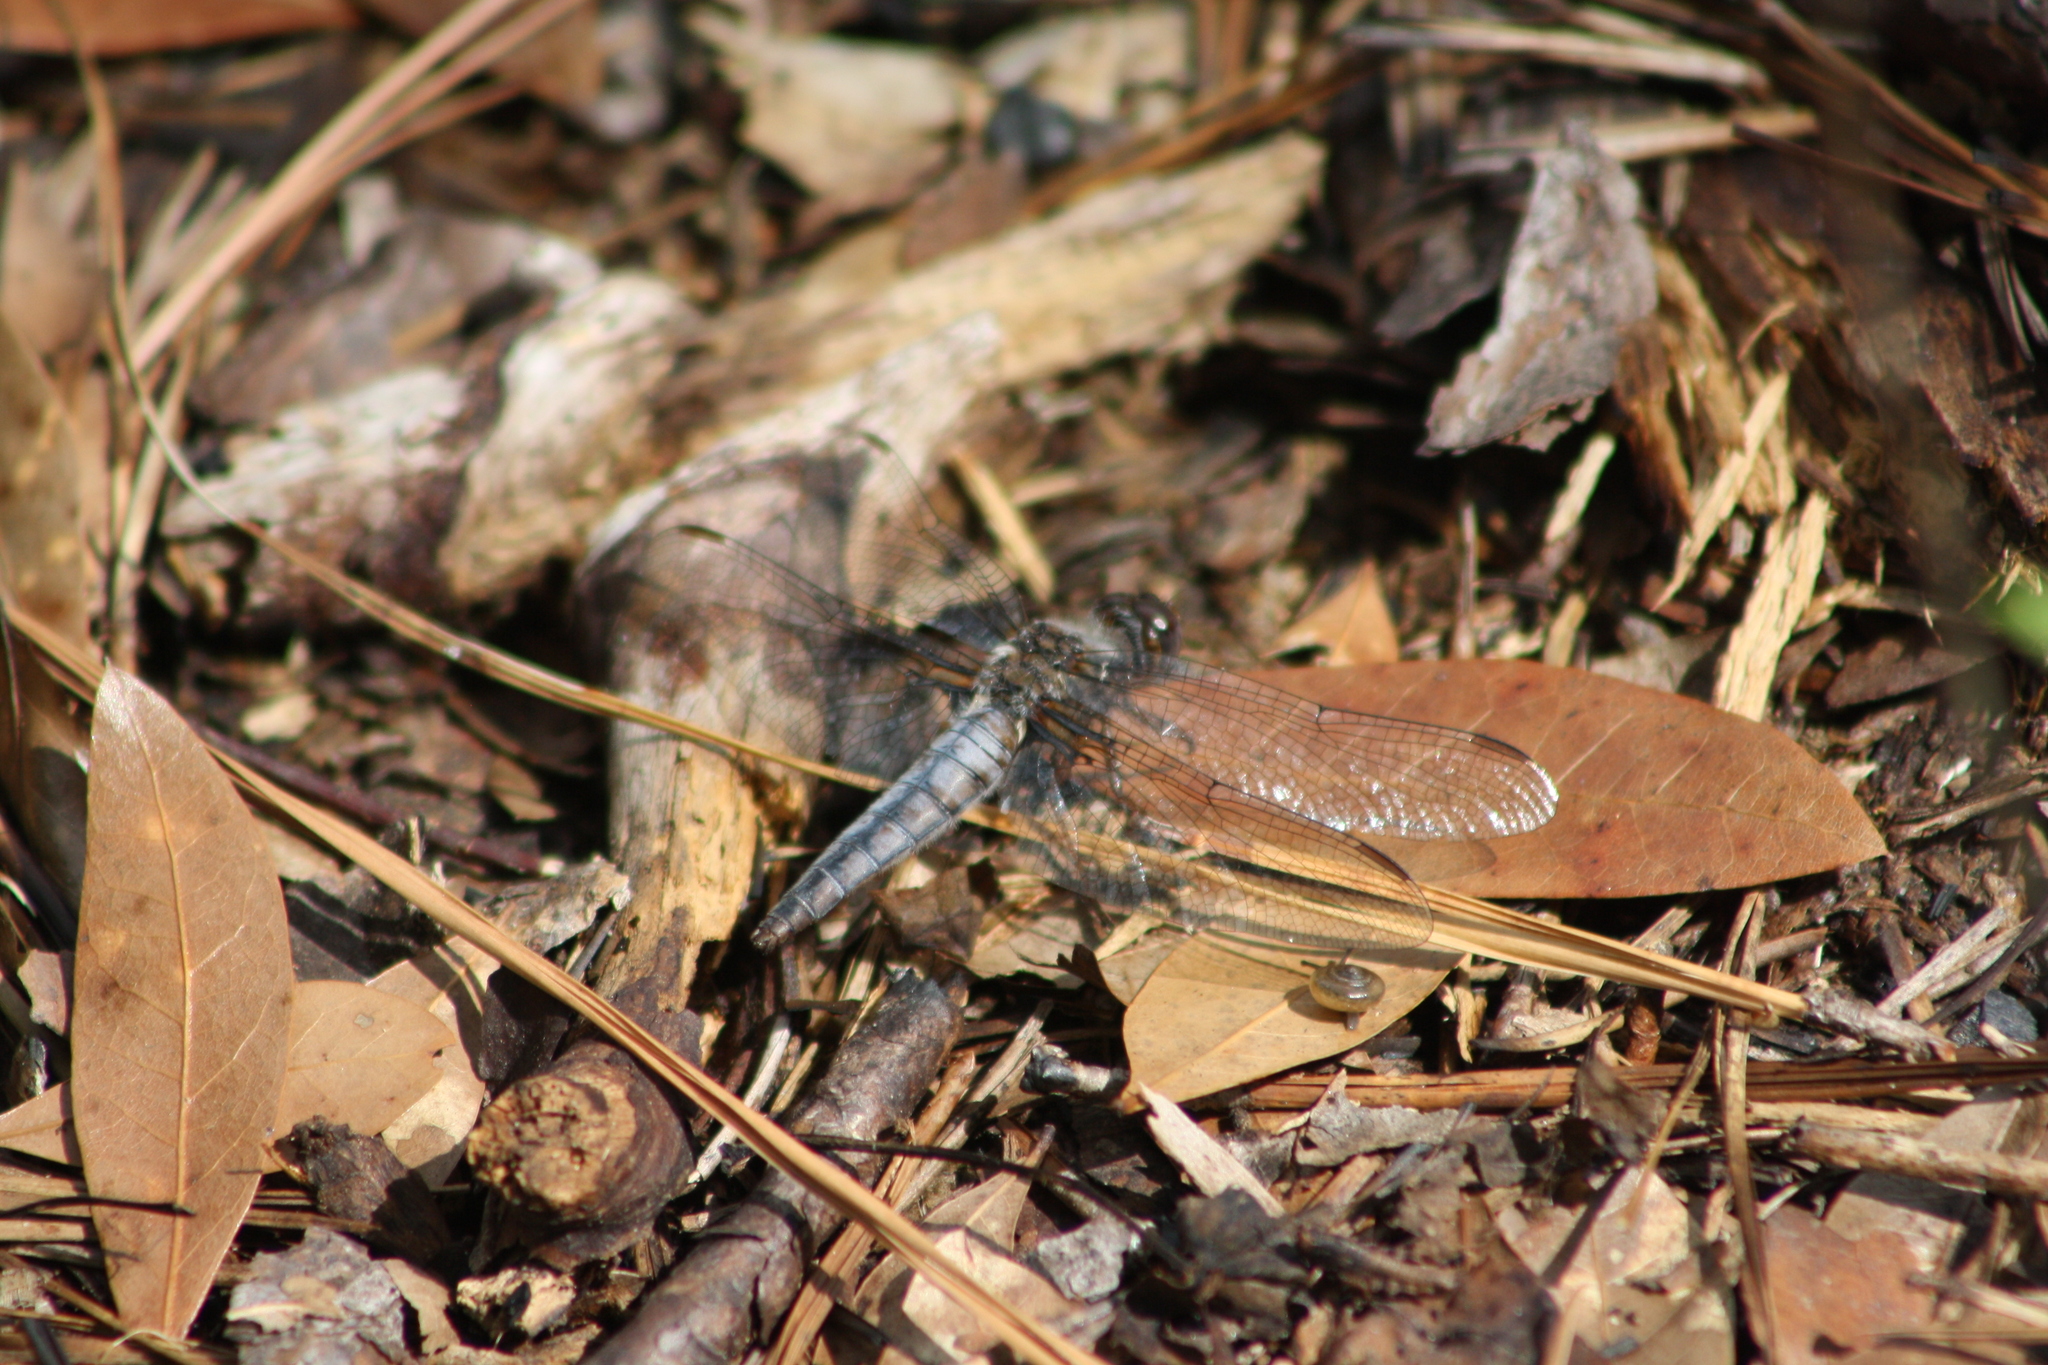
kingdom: Animalia
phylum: Arthropoda
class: Insecta
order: Odonata
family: Libellulidae
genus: Ladona
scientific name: Ladona deplanata
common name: Blue corporal
